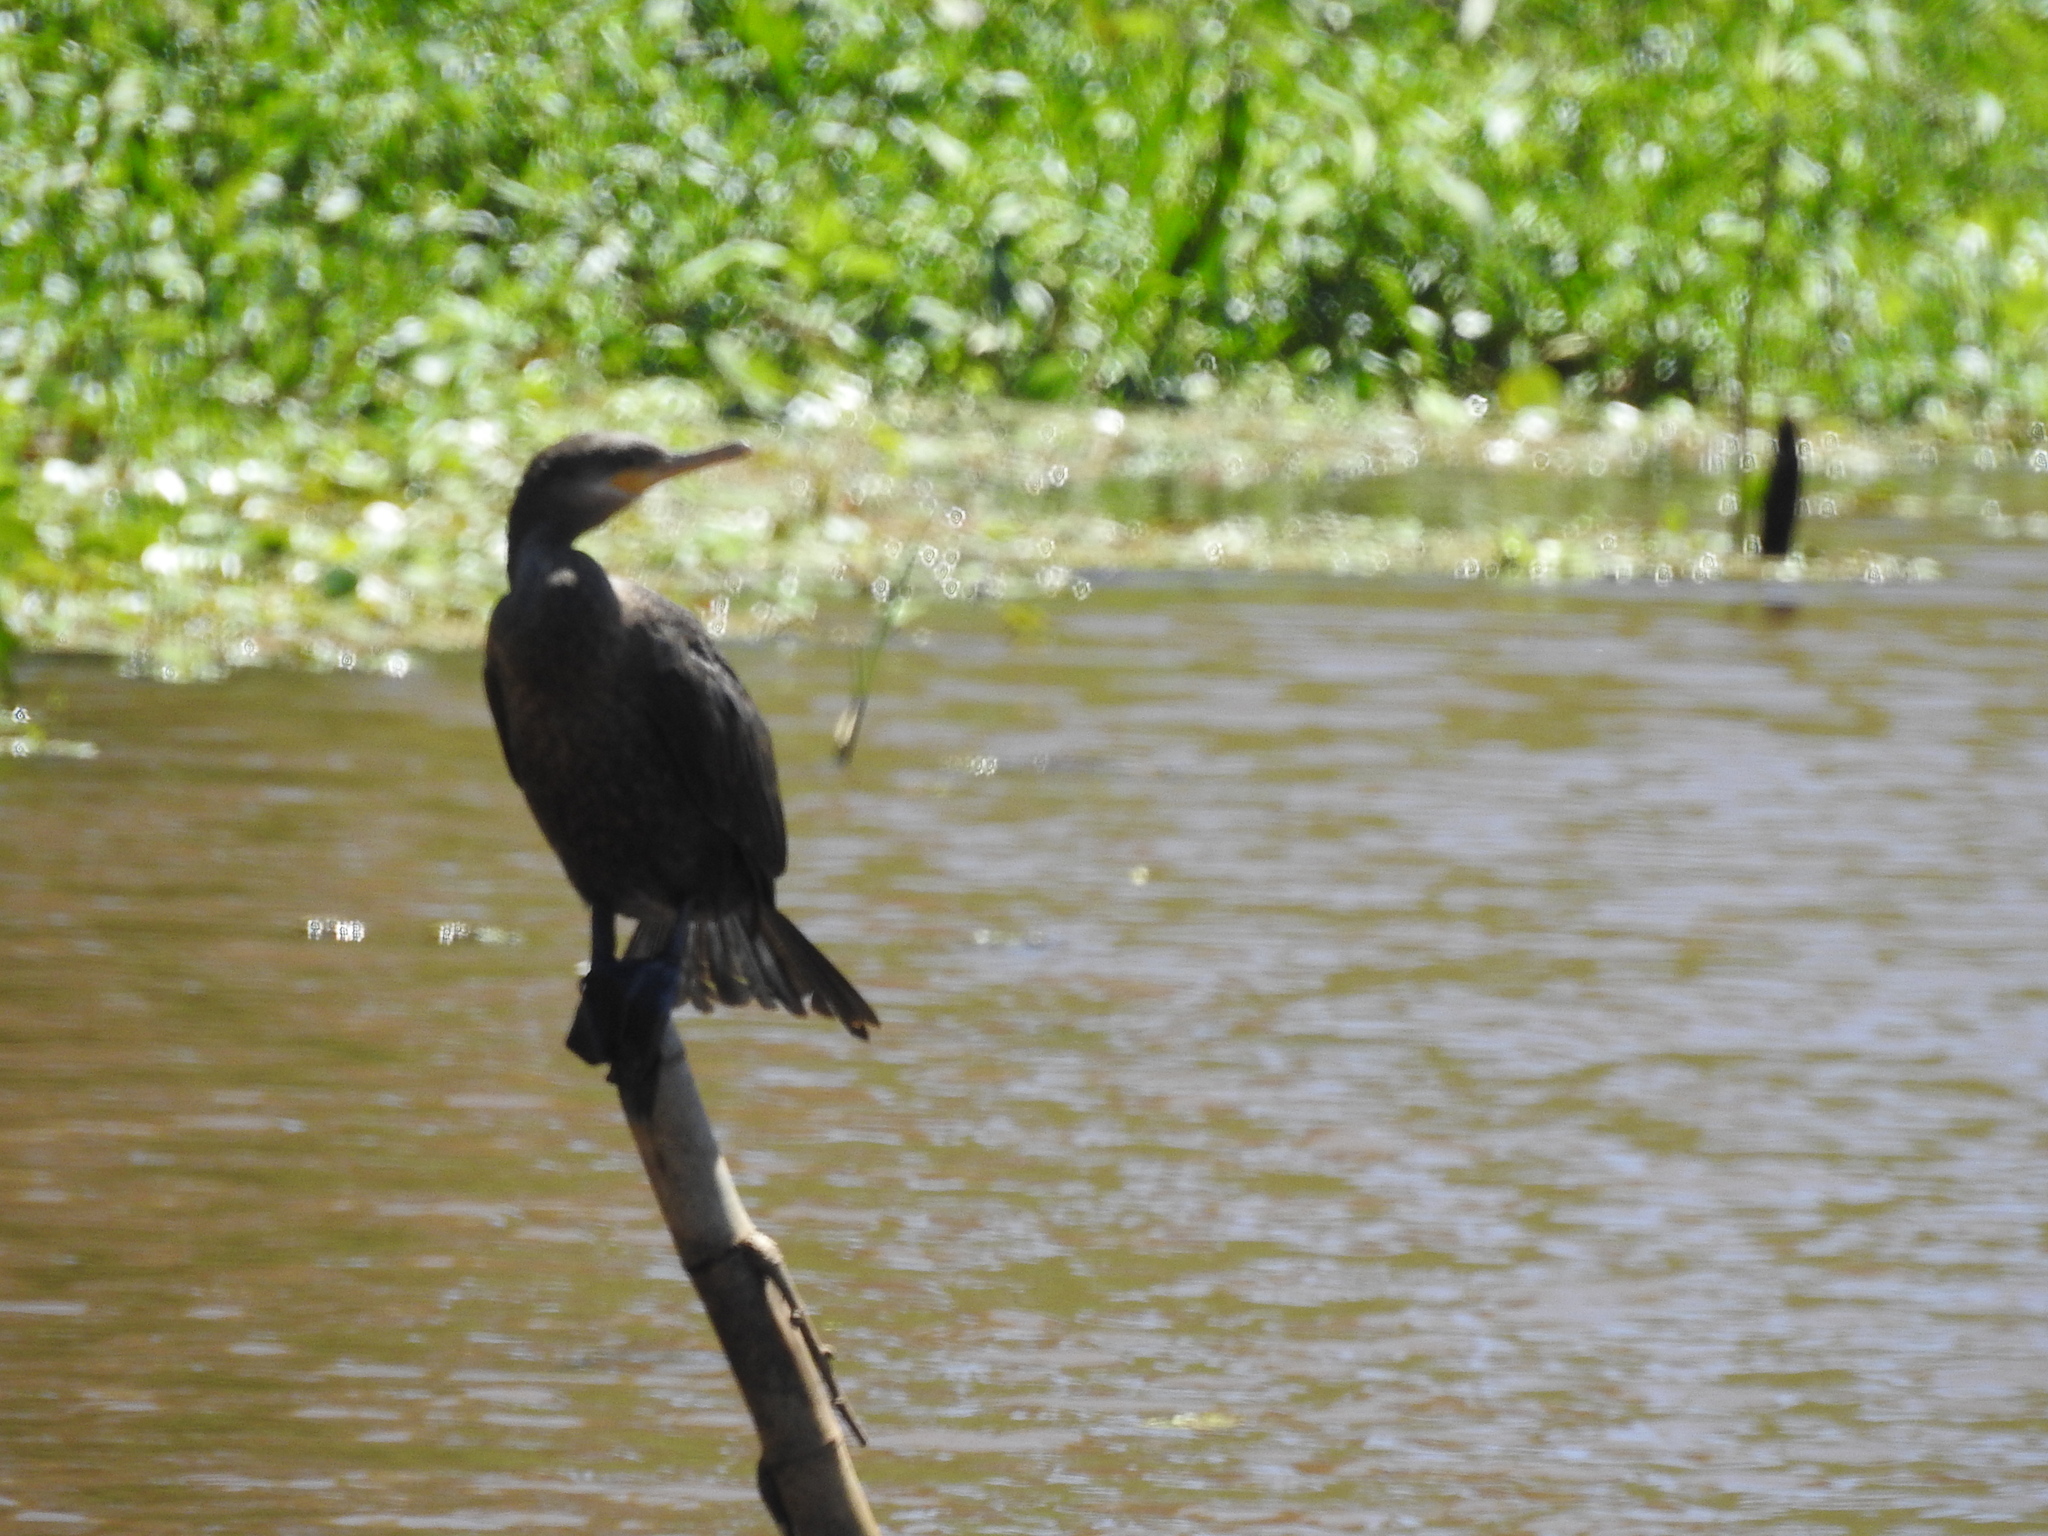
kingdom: Animalia
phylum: Chordata
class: Aves
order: Suliformes
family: Phalacrocoracidae
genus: Phalacrocorax
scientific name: Phalacrocorax brasilianus
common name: Neotropic cormorant
